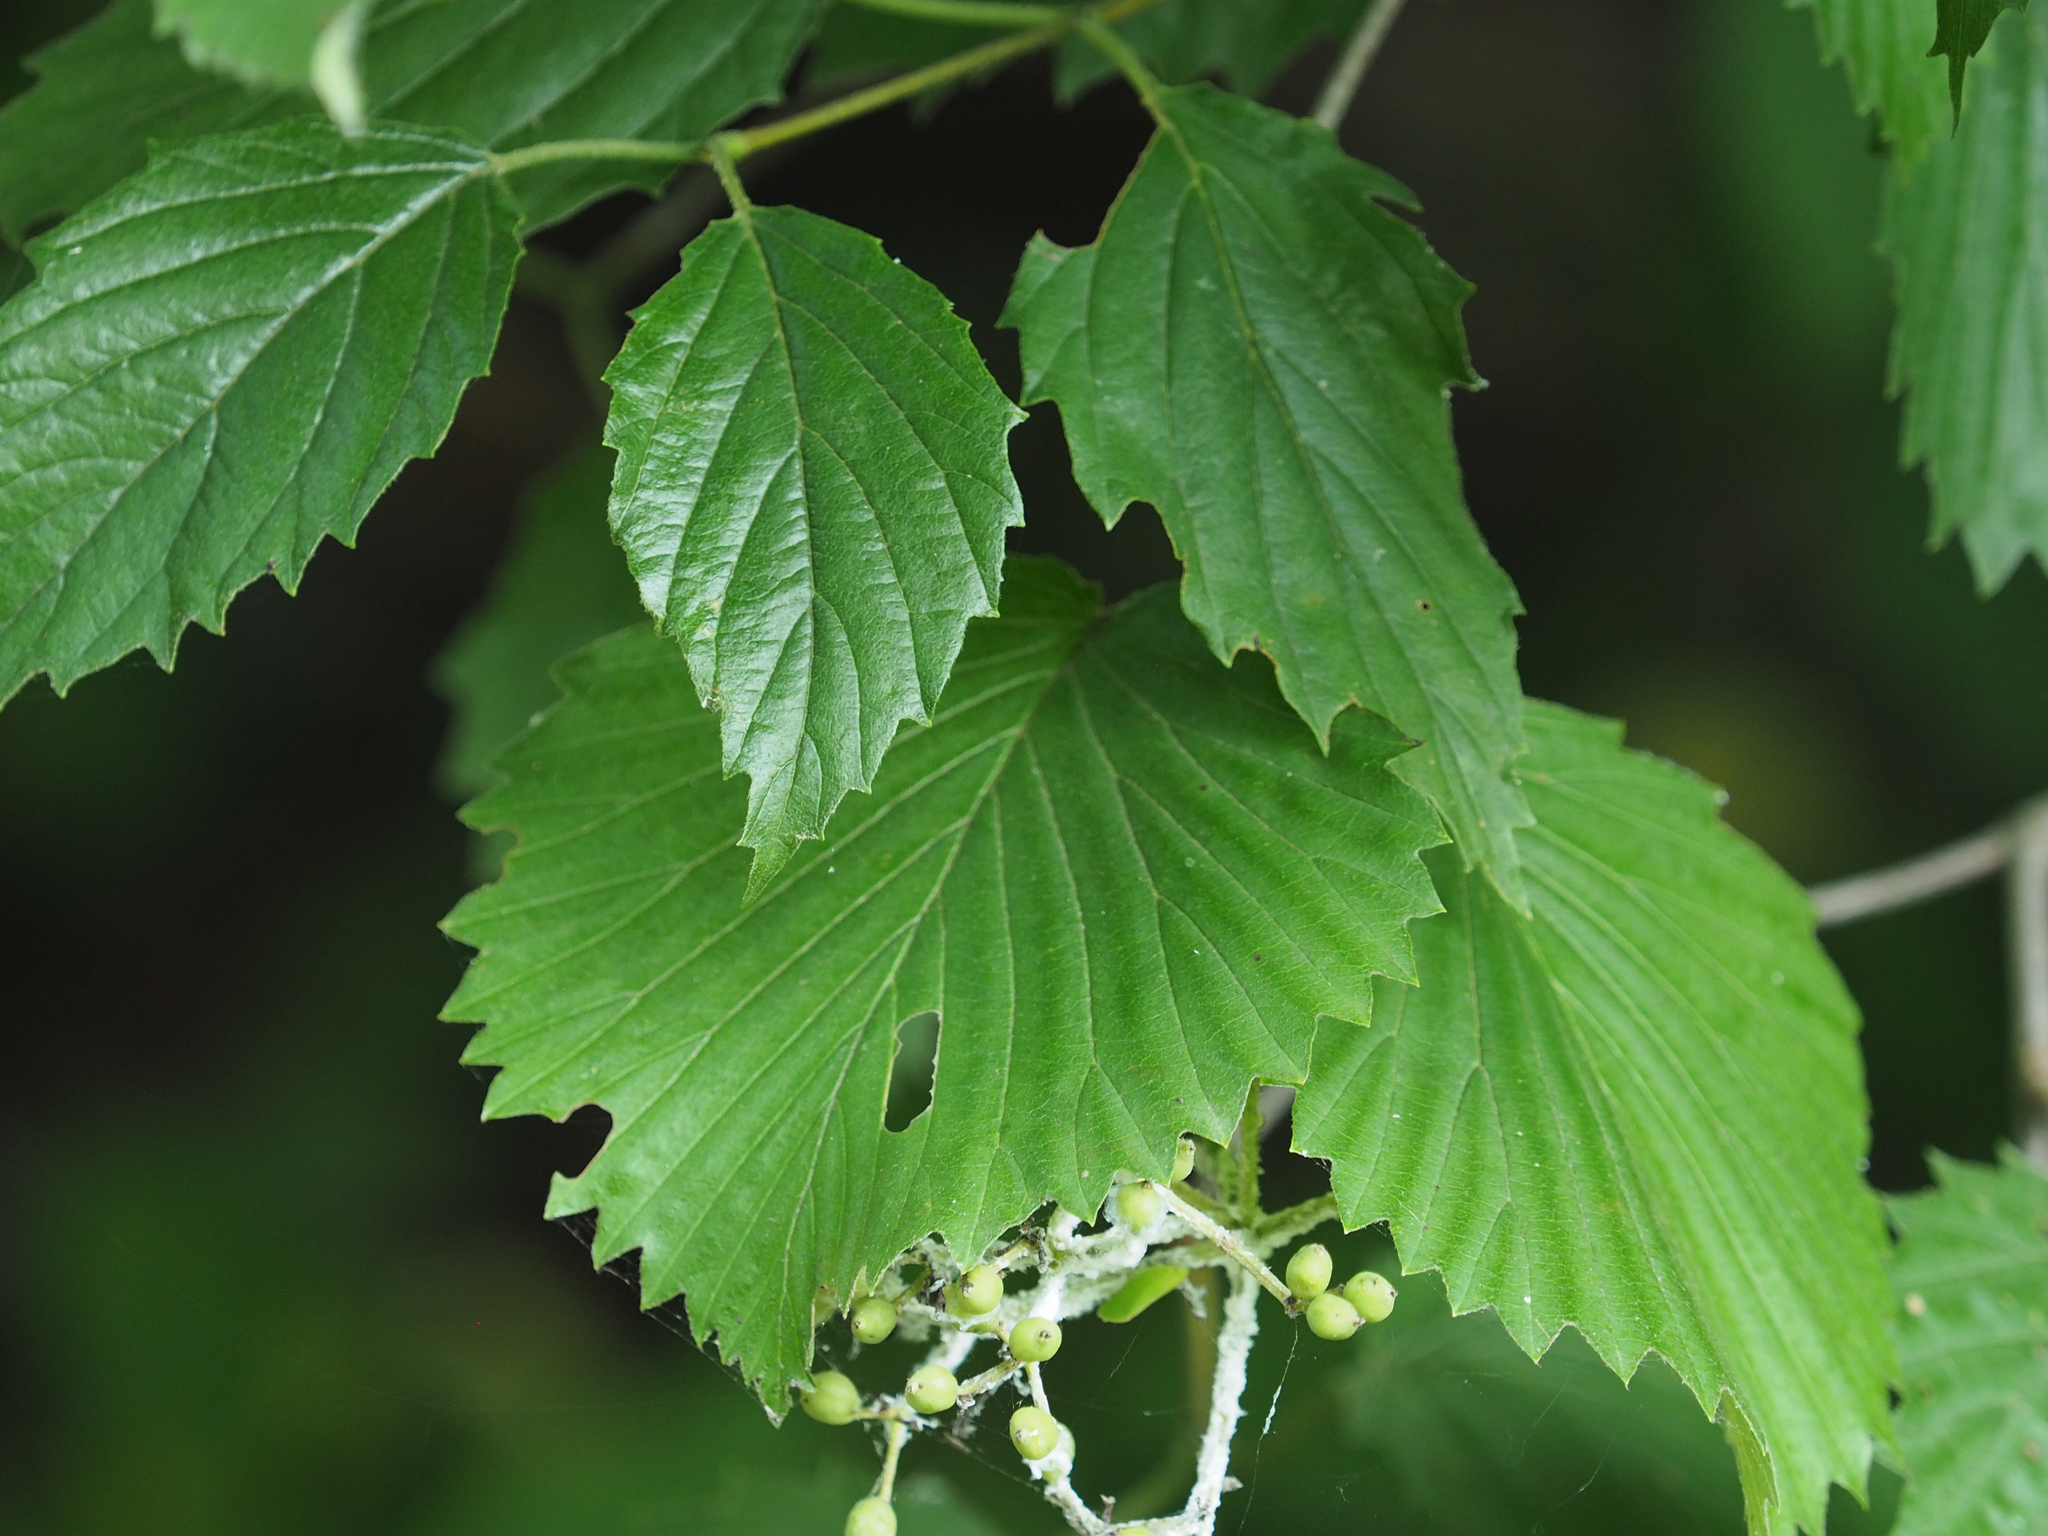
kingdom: Plantae
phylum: Tracheophyta
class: Magnoliopsida
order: Dipsacales
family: Viburnaceae
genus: Viburnum
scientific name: Viburnum dentatum
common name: Arrow-wood
